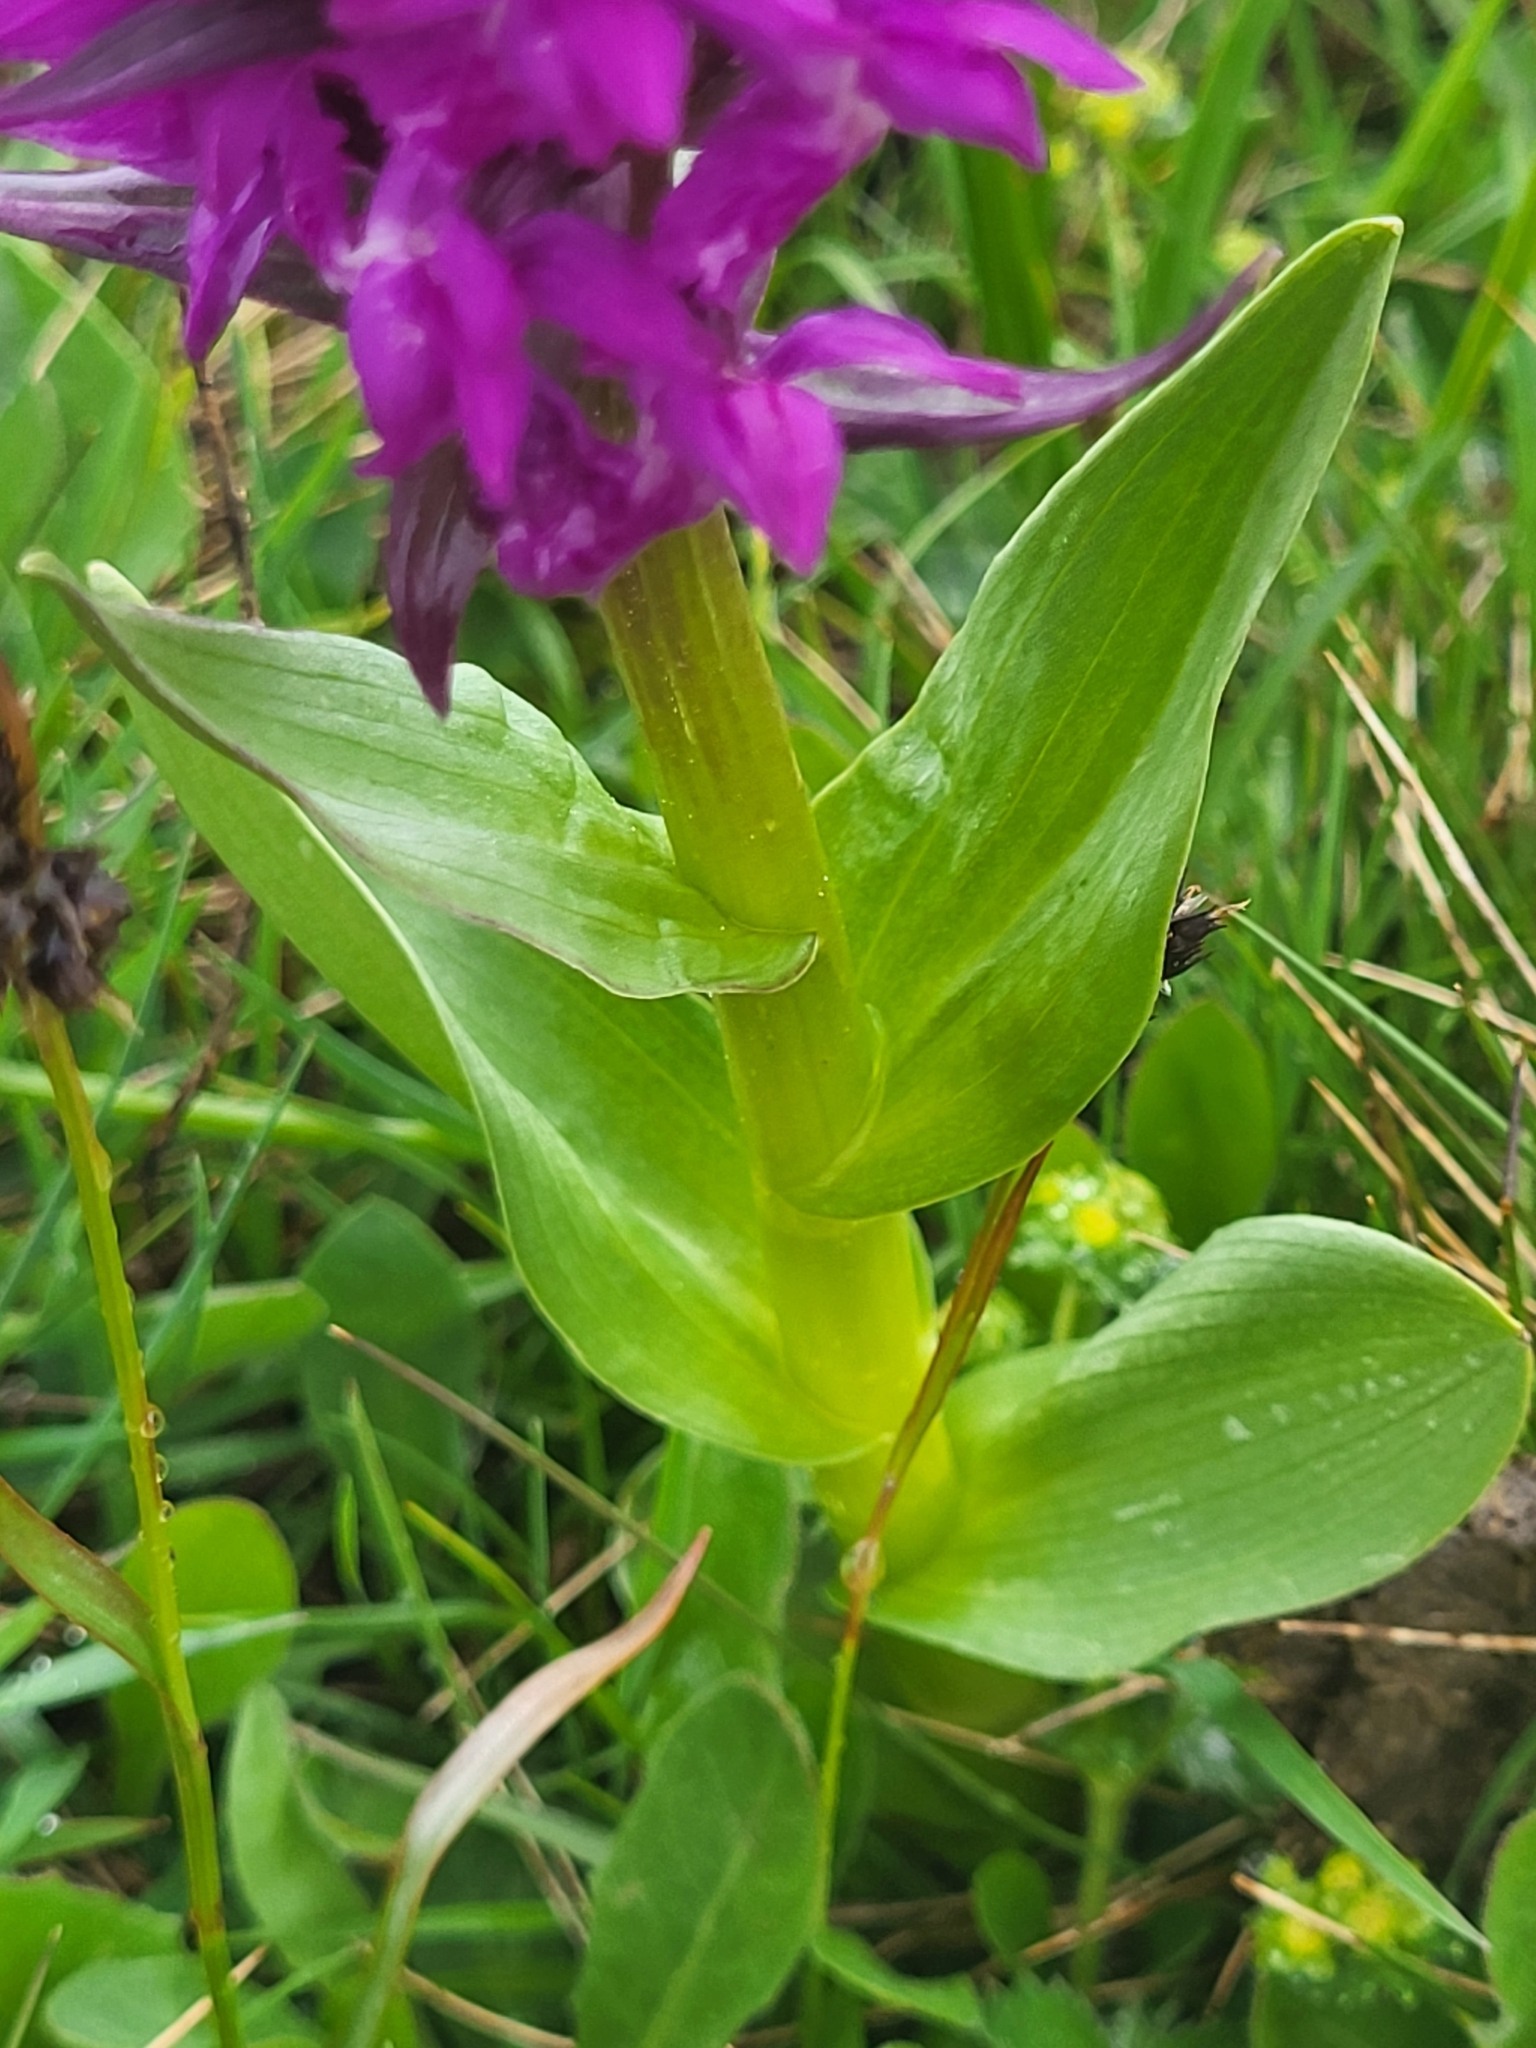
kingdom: Plantae
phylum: Tracheophyta
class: Liliopsida
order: Asparagales
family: Orchidaceae
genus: Dactylorhiza
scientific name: Dactylorhiza euxina
